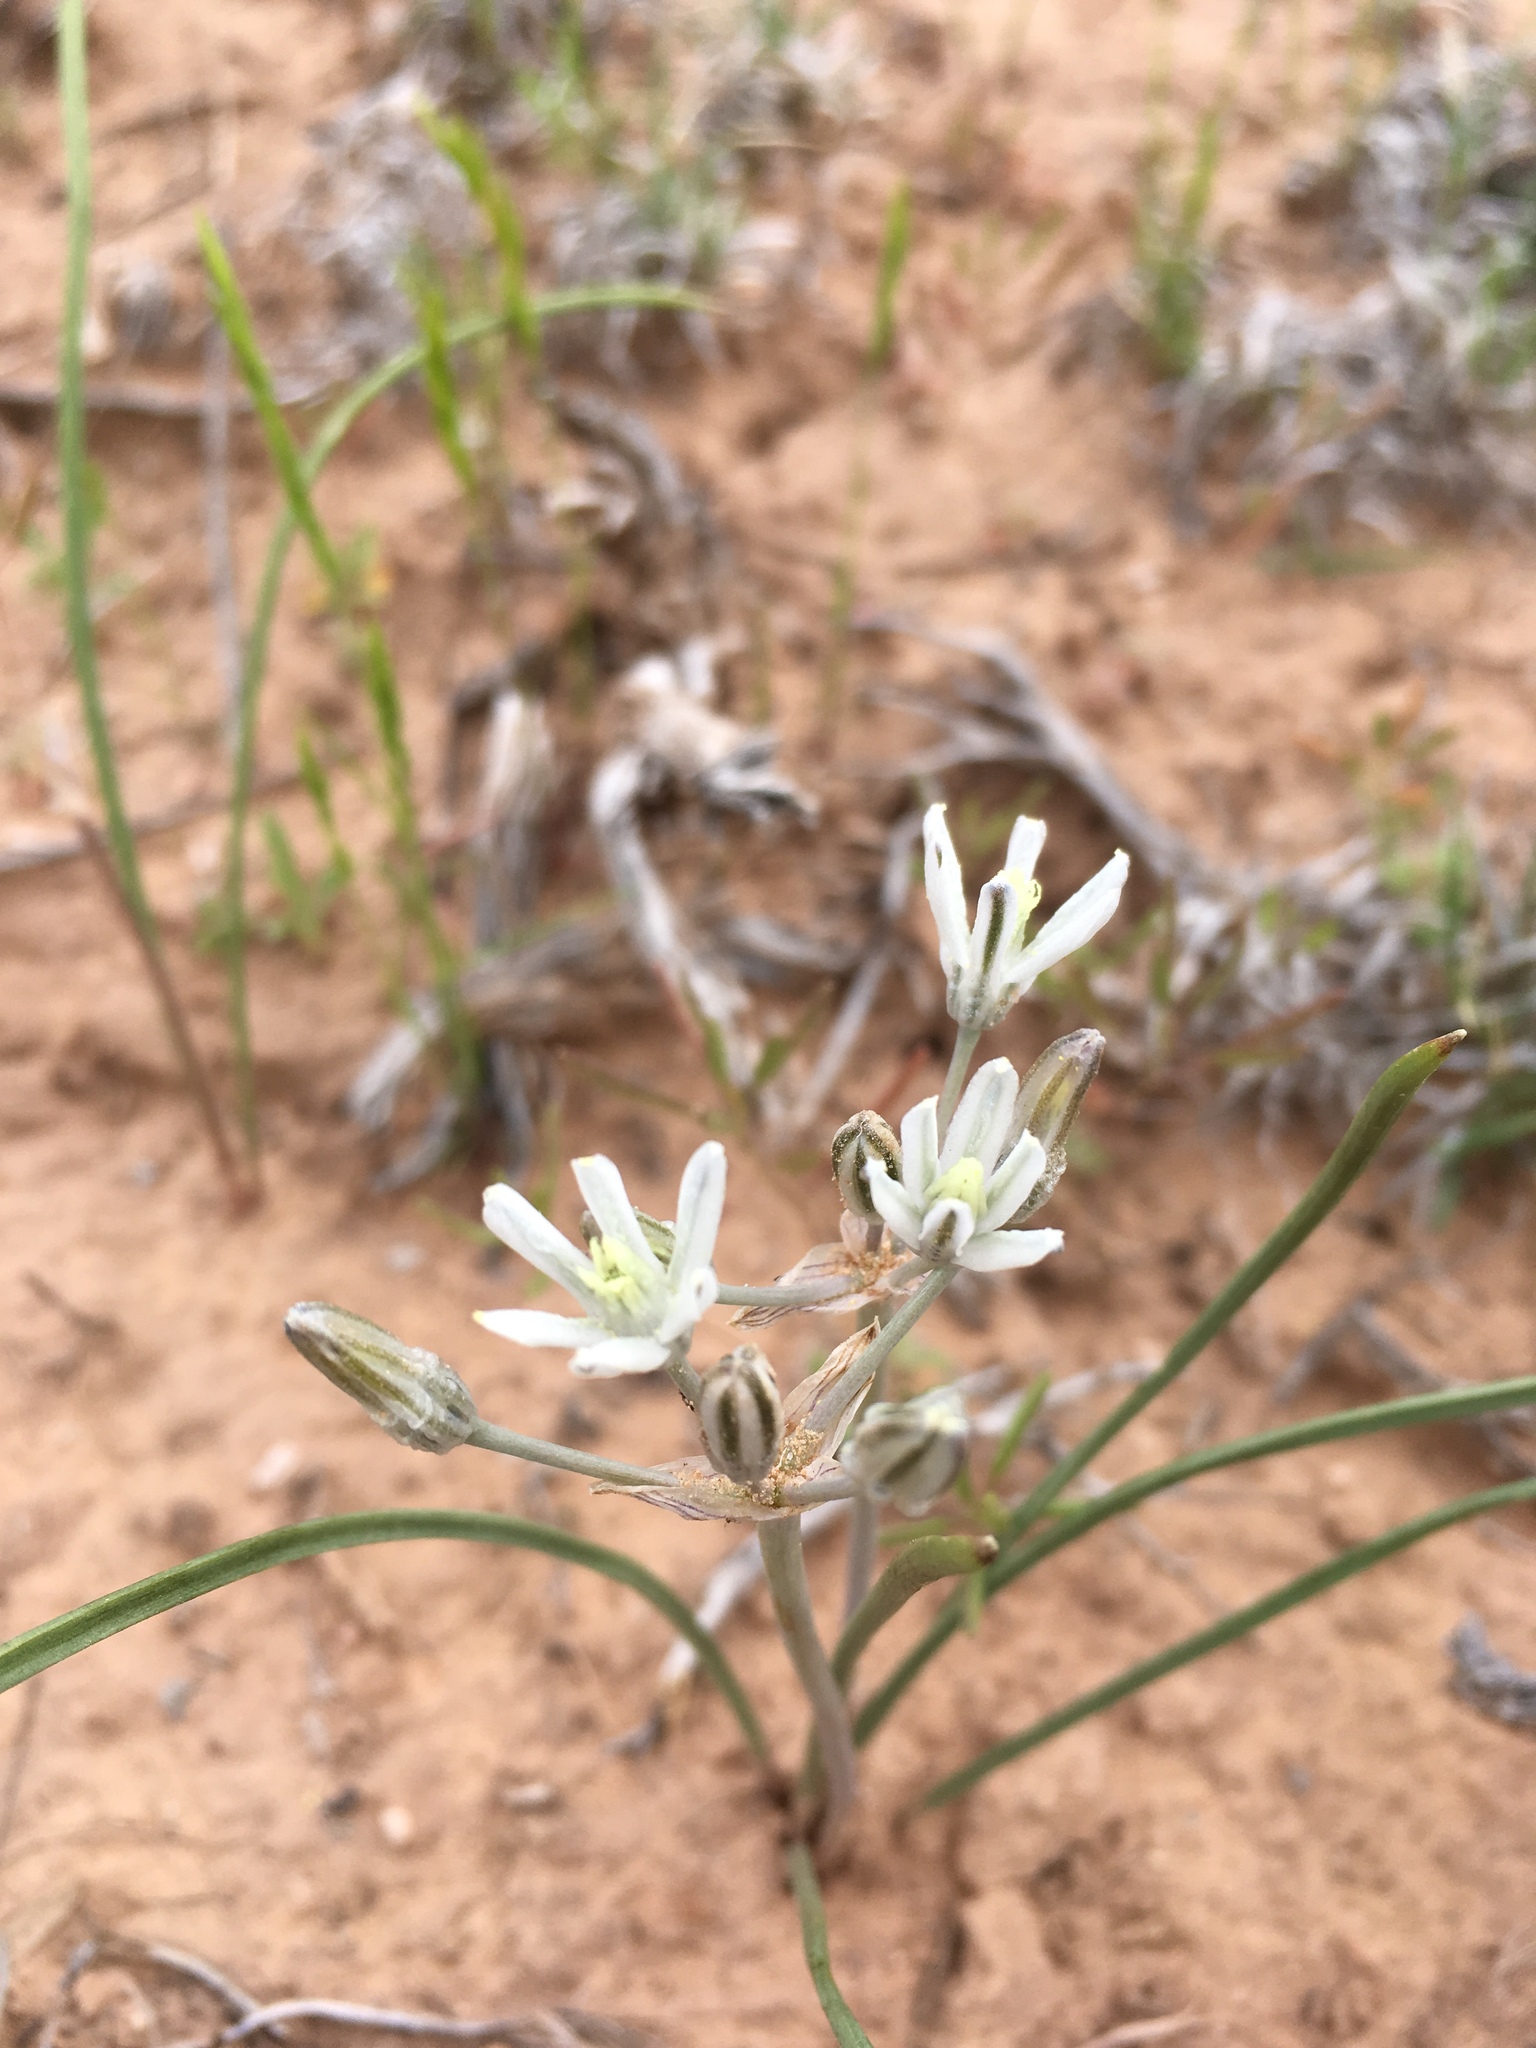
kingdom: Plantae
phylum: Tracheophyta
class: Liliopsida
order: Asparagales
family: Asparagaceae
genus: Androstephium
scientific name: Androstephium breviflorum
